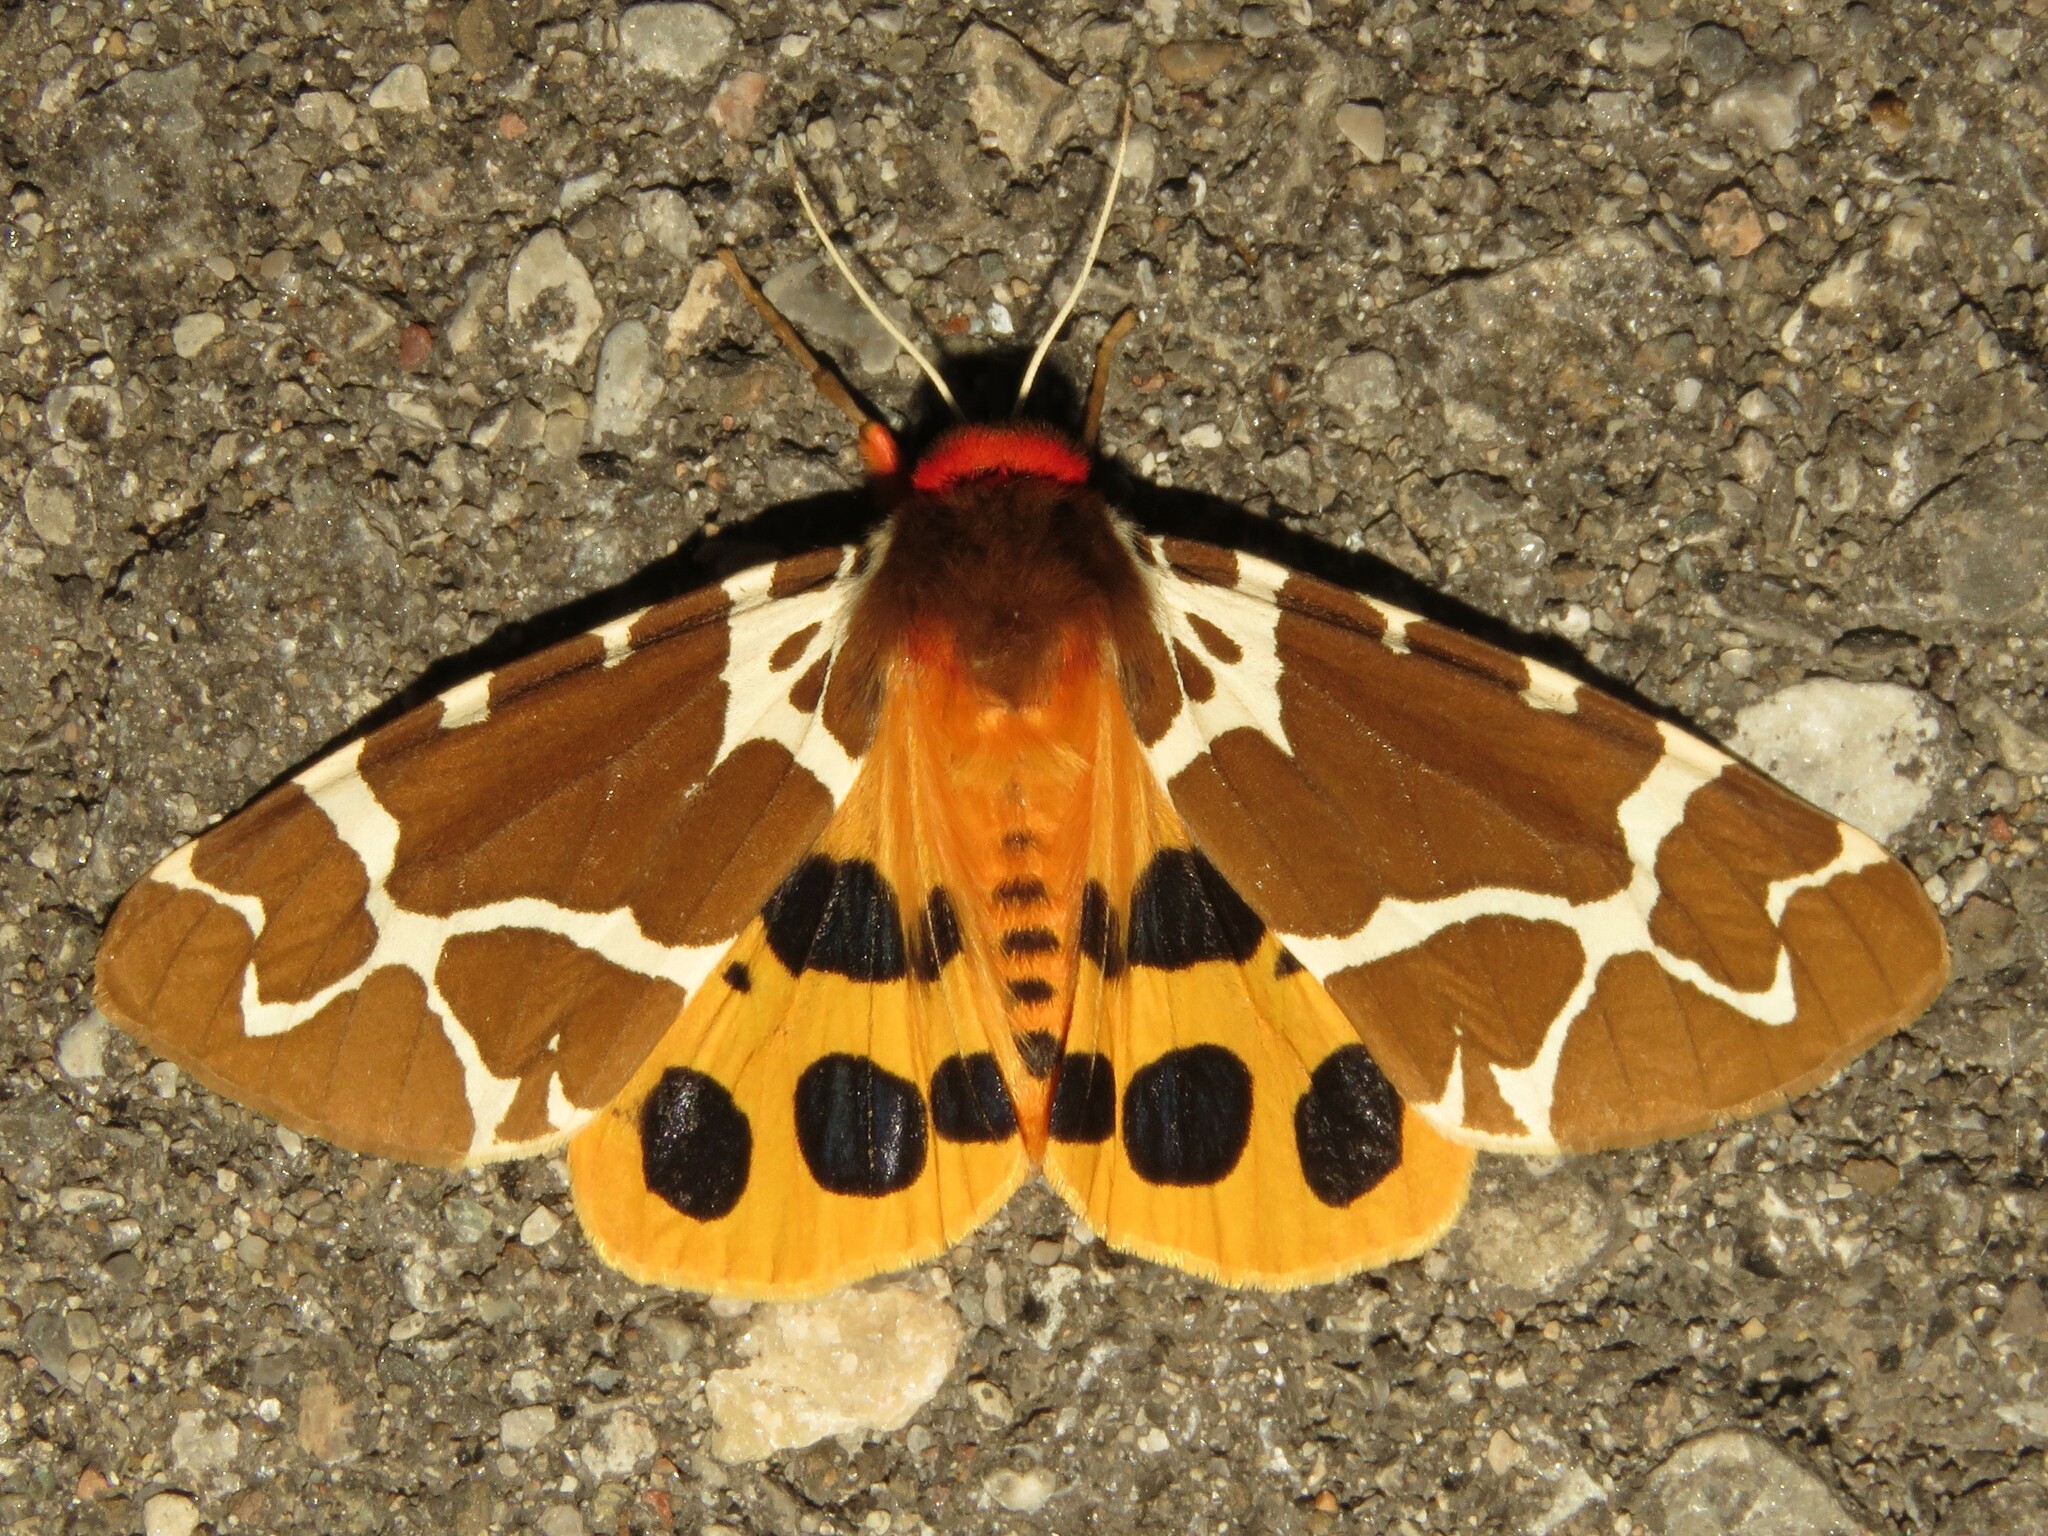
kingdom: Animalia
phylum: Arthropoda
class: Insecta
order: Lepidoptera
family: Erebidae
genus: Arctia
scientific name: Arctia caja
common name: Garden tiger
